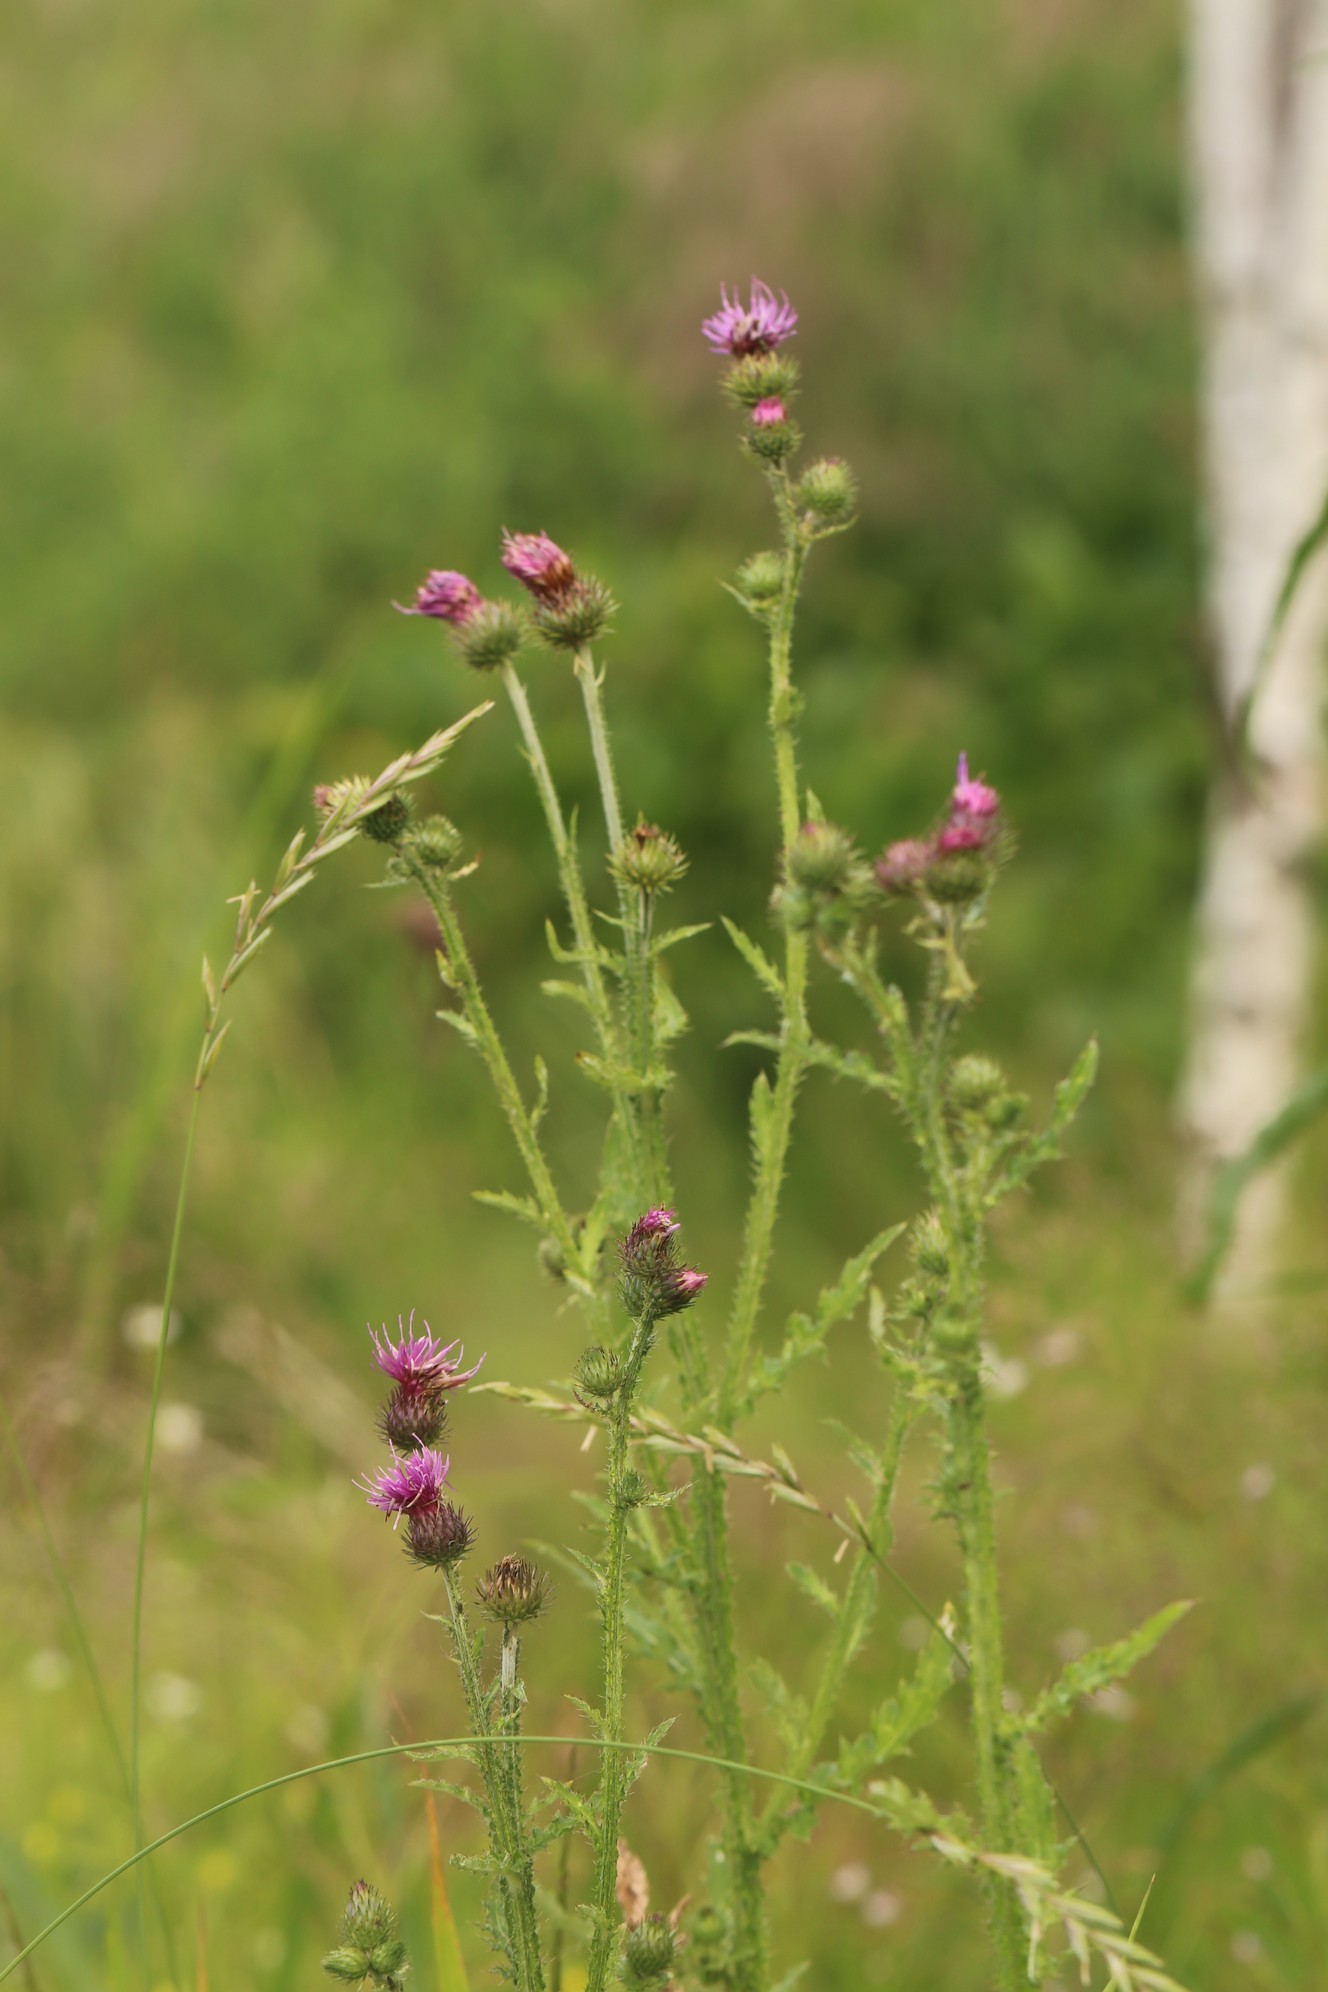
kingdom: Plantae
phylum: Tracheophyta
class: Magnoliopsida
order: Asterales
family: Asteraceae
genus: Carduus
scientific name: Carduus crispus
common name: Welted thistle
